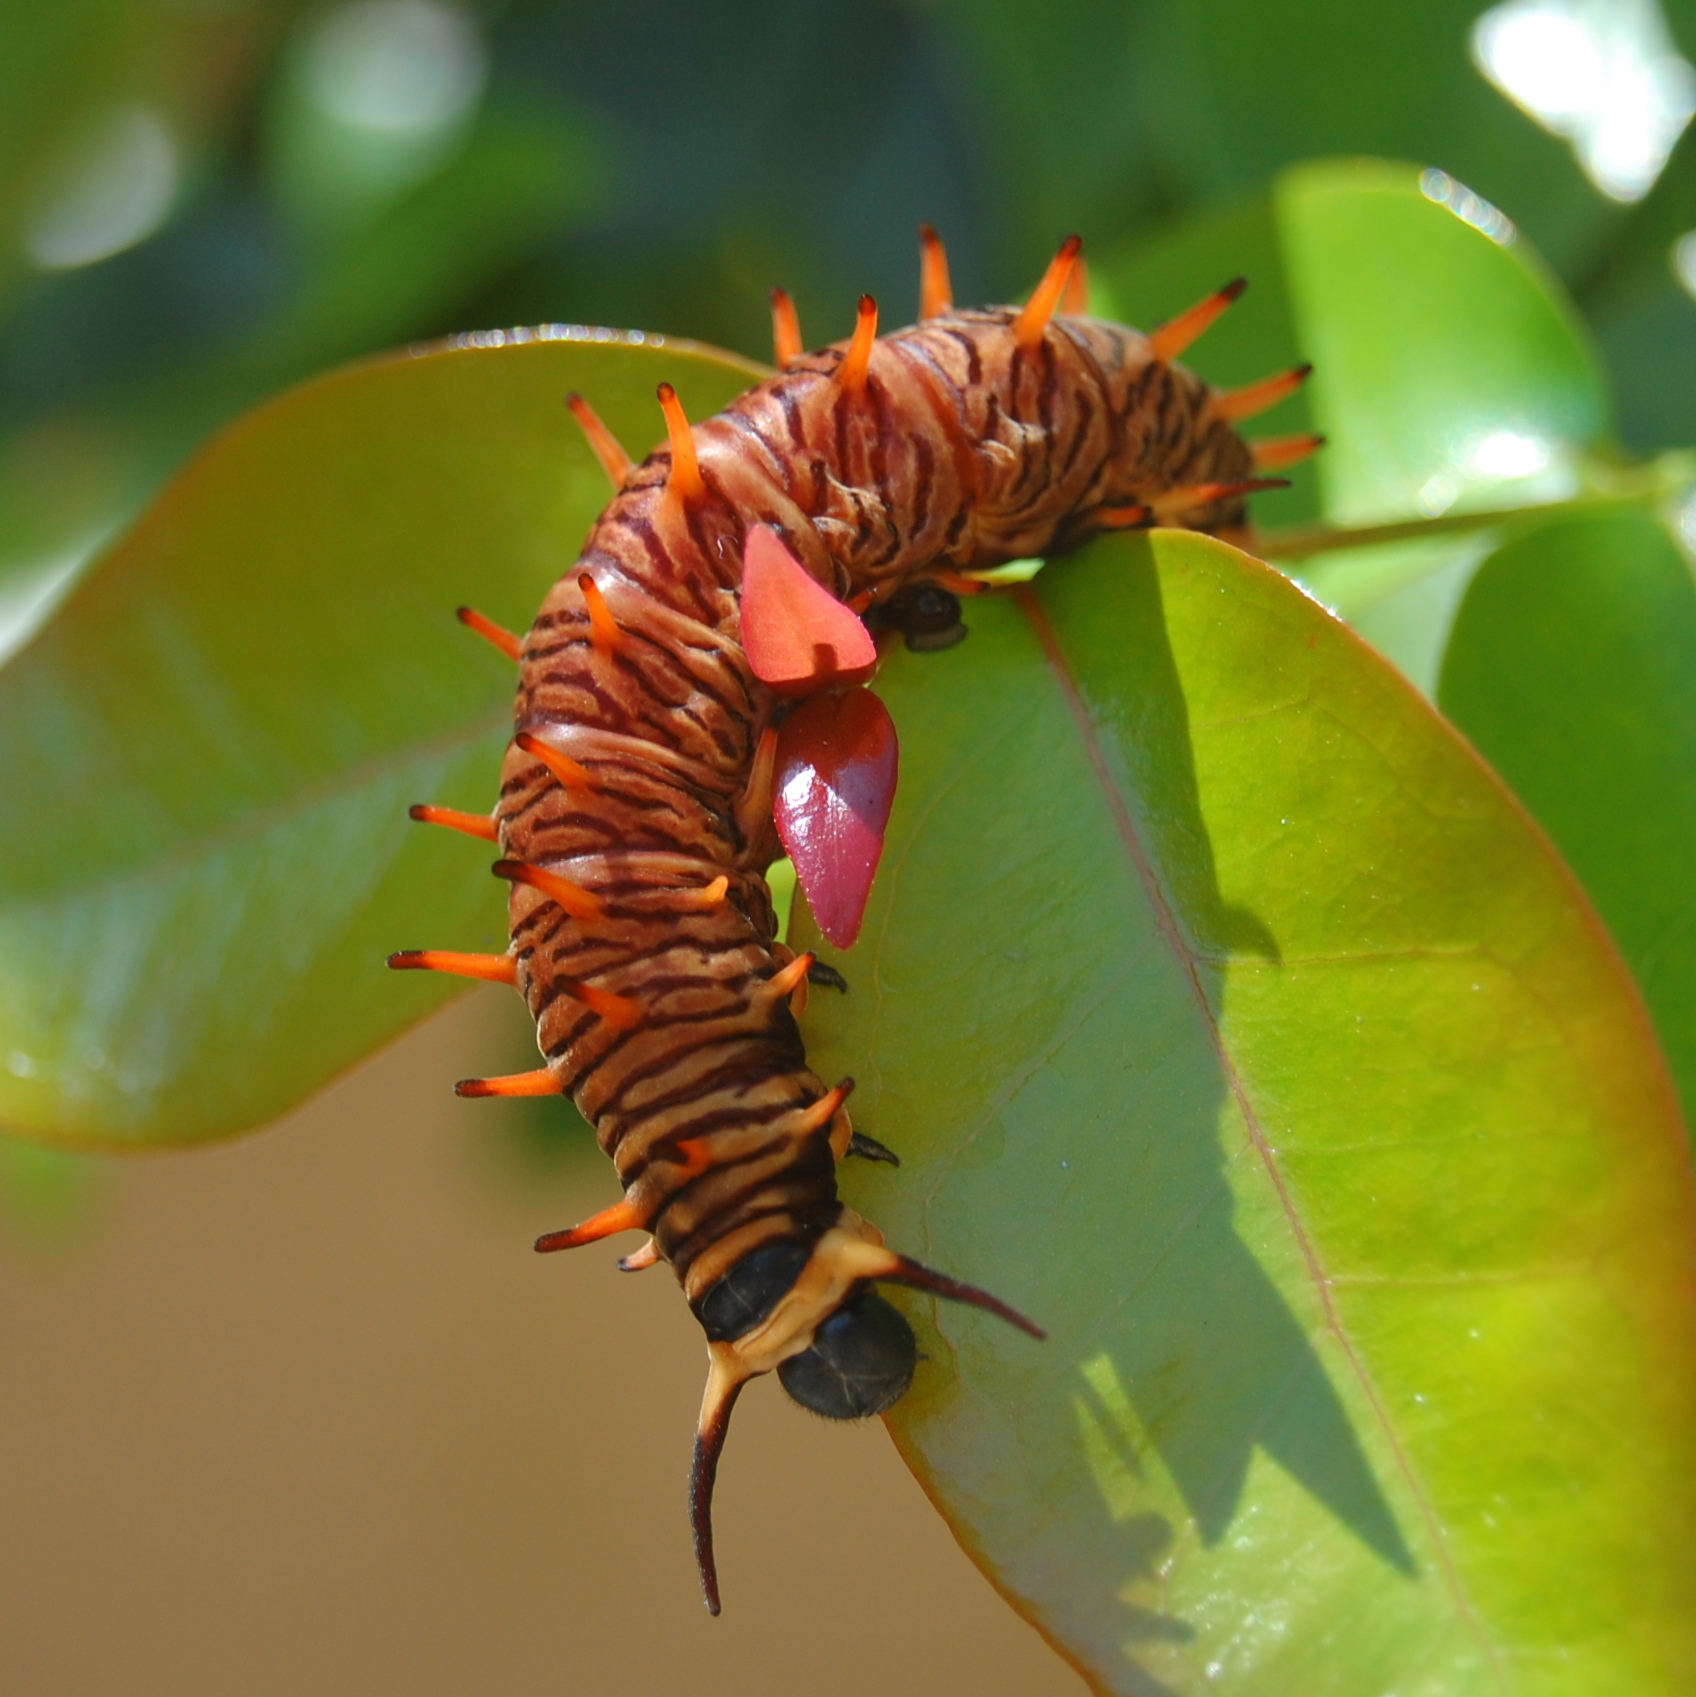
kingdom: Animalia
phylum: Arthropoda
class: Insecta
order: Lepidoptera
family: Papilionidae
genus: Battus
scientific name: Battus polydamas
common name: Polydamas swallowtail
